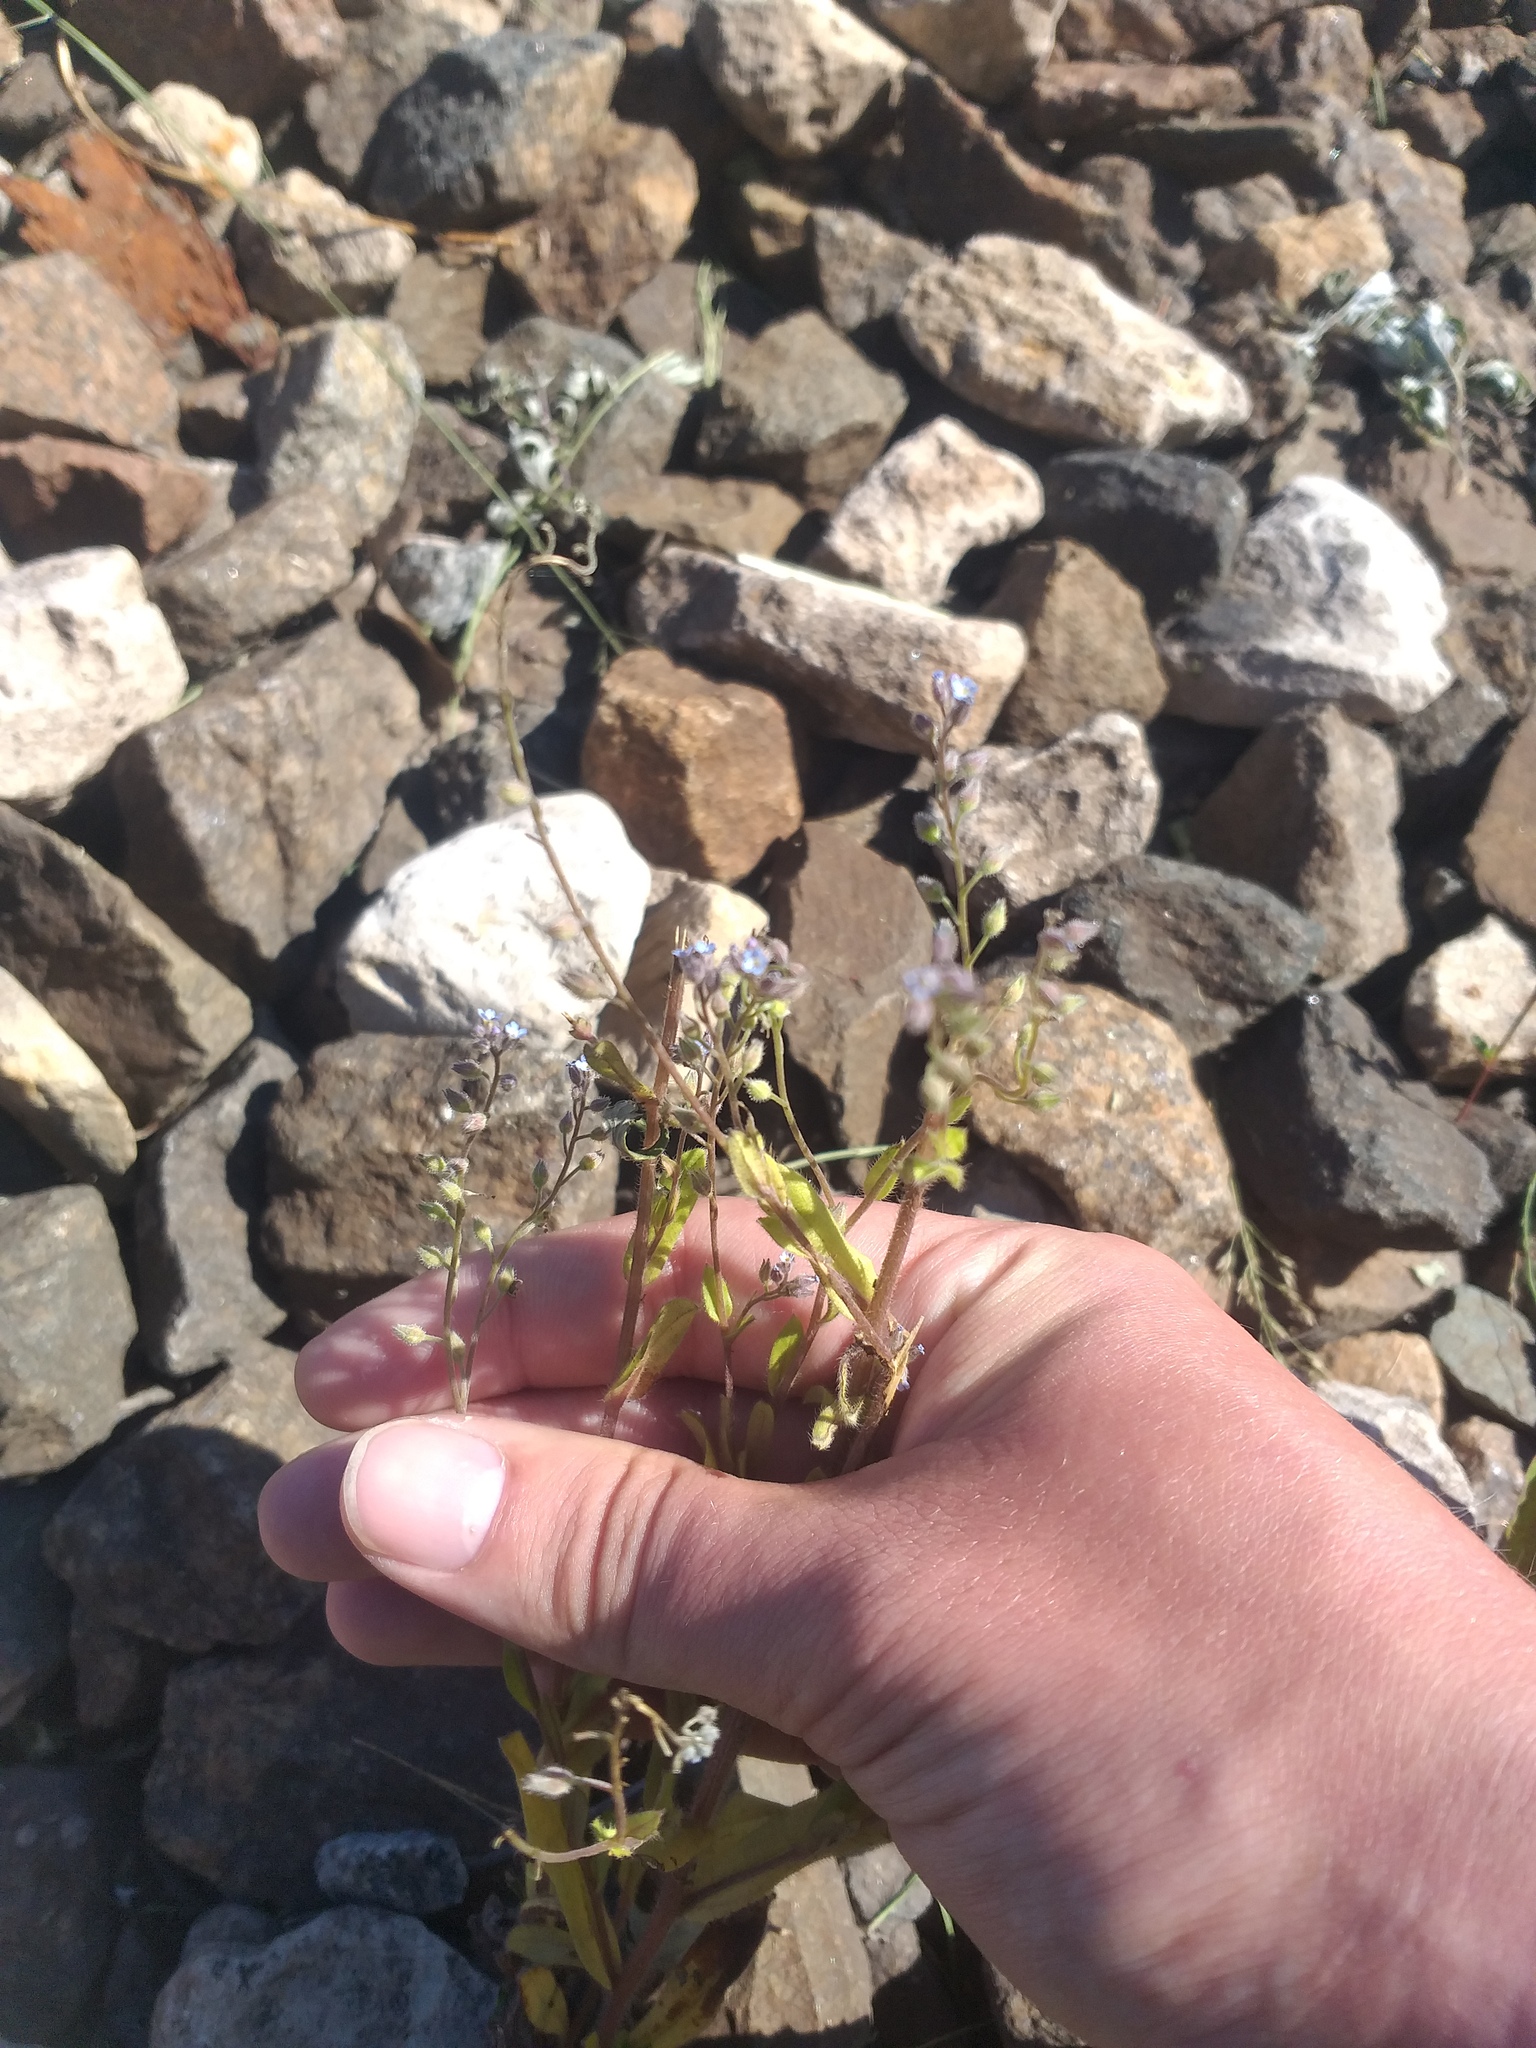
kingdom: Plantae
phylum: Tracheophyta
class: Magnoliopsida
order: Boraginales
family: Boraginaceae
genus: Myosotis
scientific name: Myosotis arvensis
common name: Field forget-me-not
